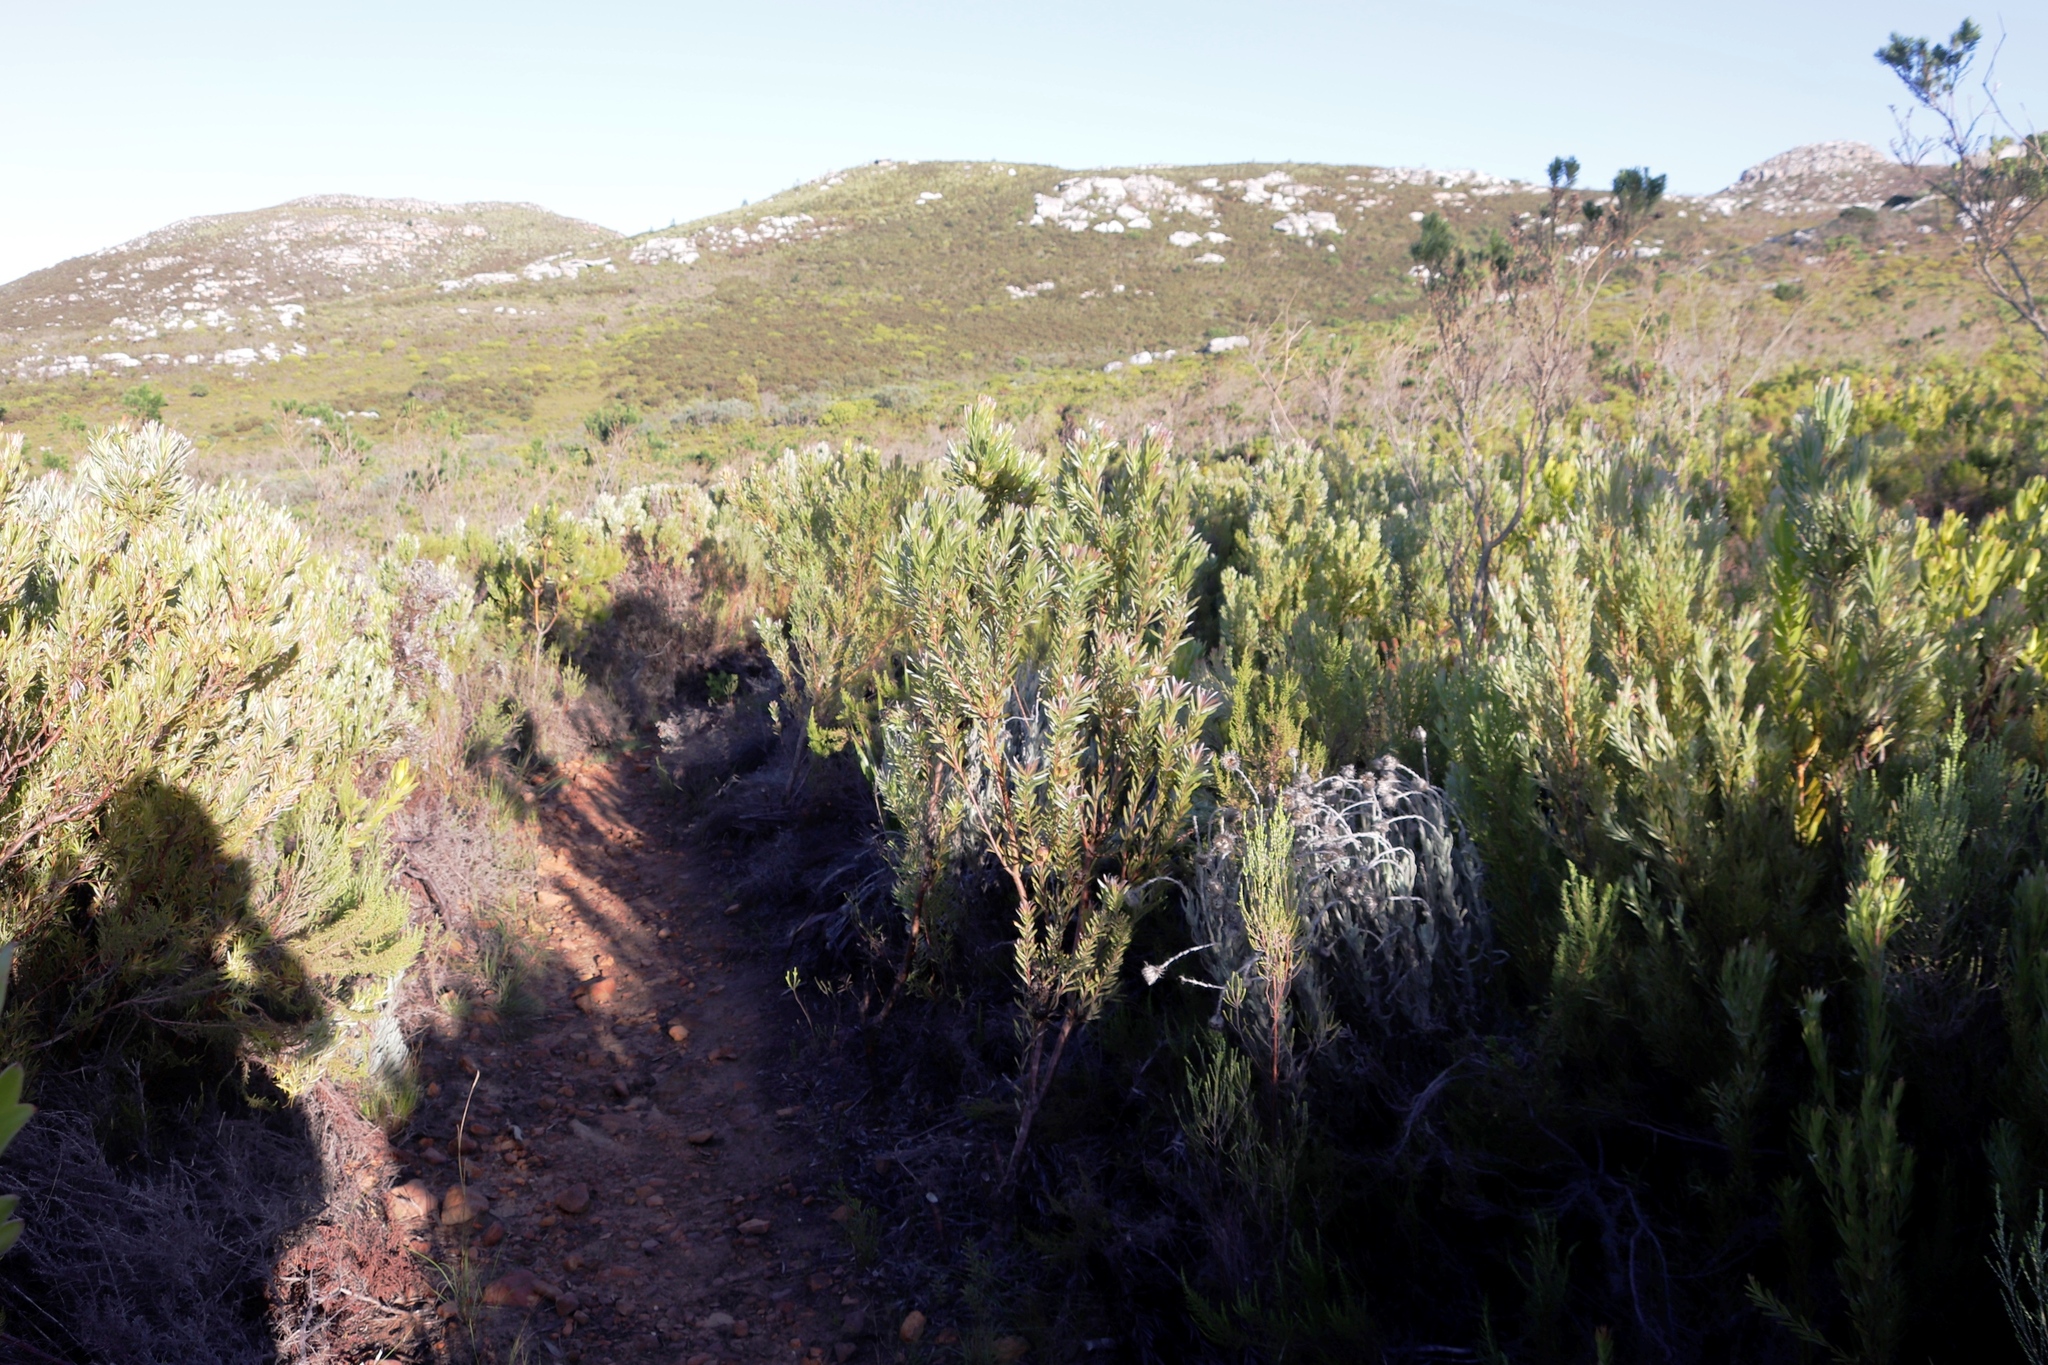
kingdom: Plantae
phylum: Tracheophyta
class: Magnoliopsida
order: Proteales
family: Proteaceae
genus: Leucadendron
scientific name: Leucadendron xanthoconus
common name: Sickle-leaf conebush
